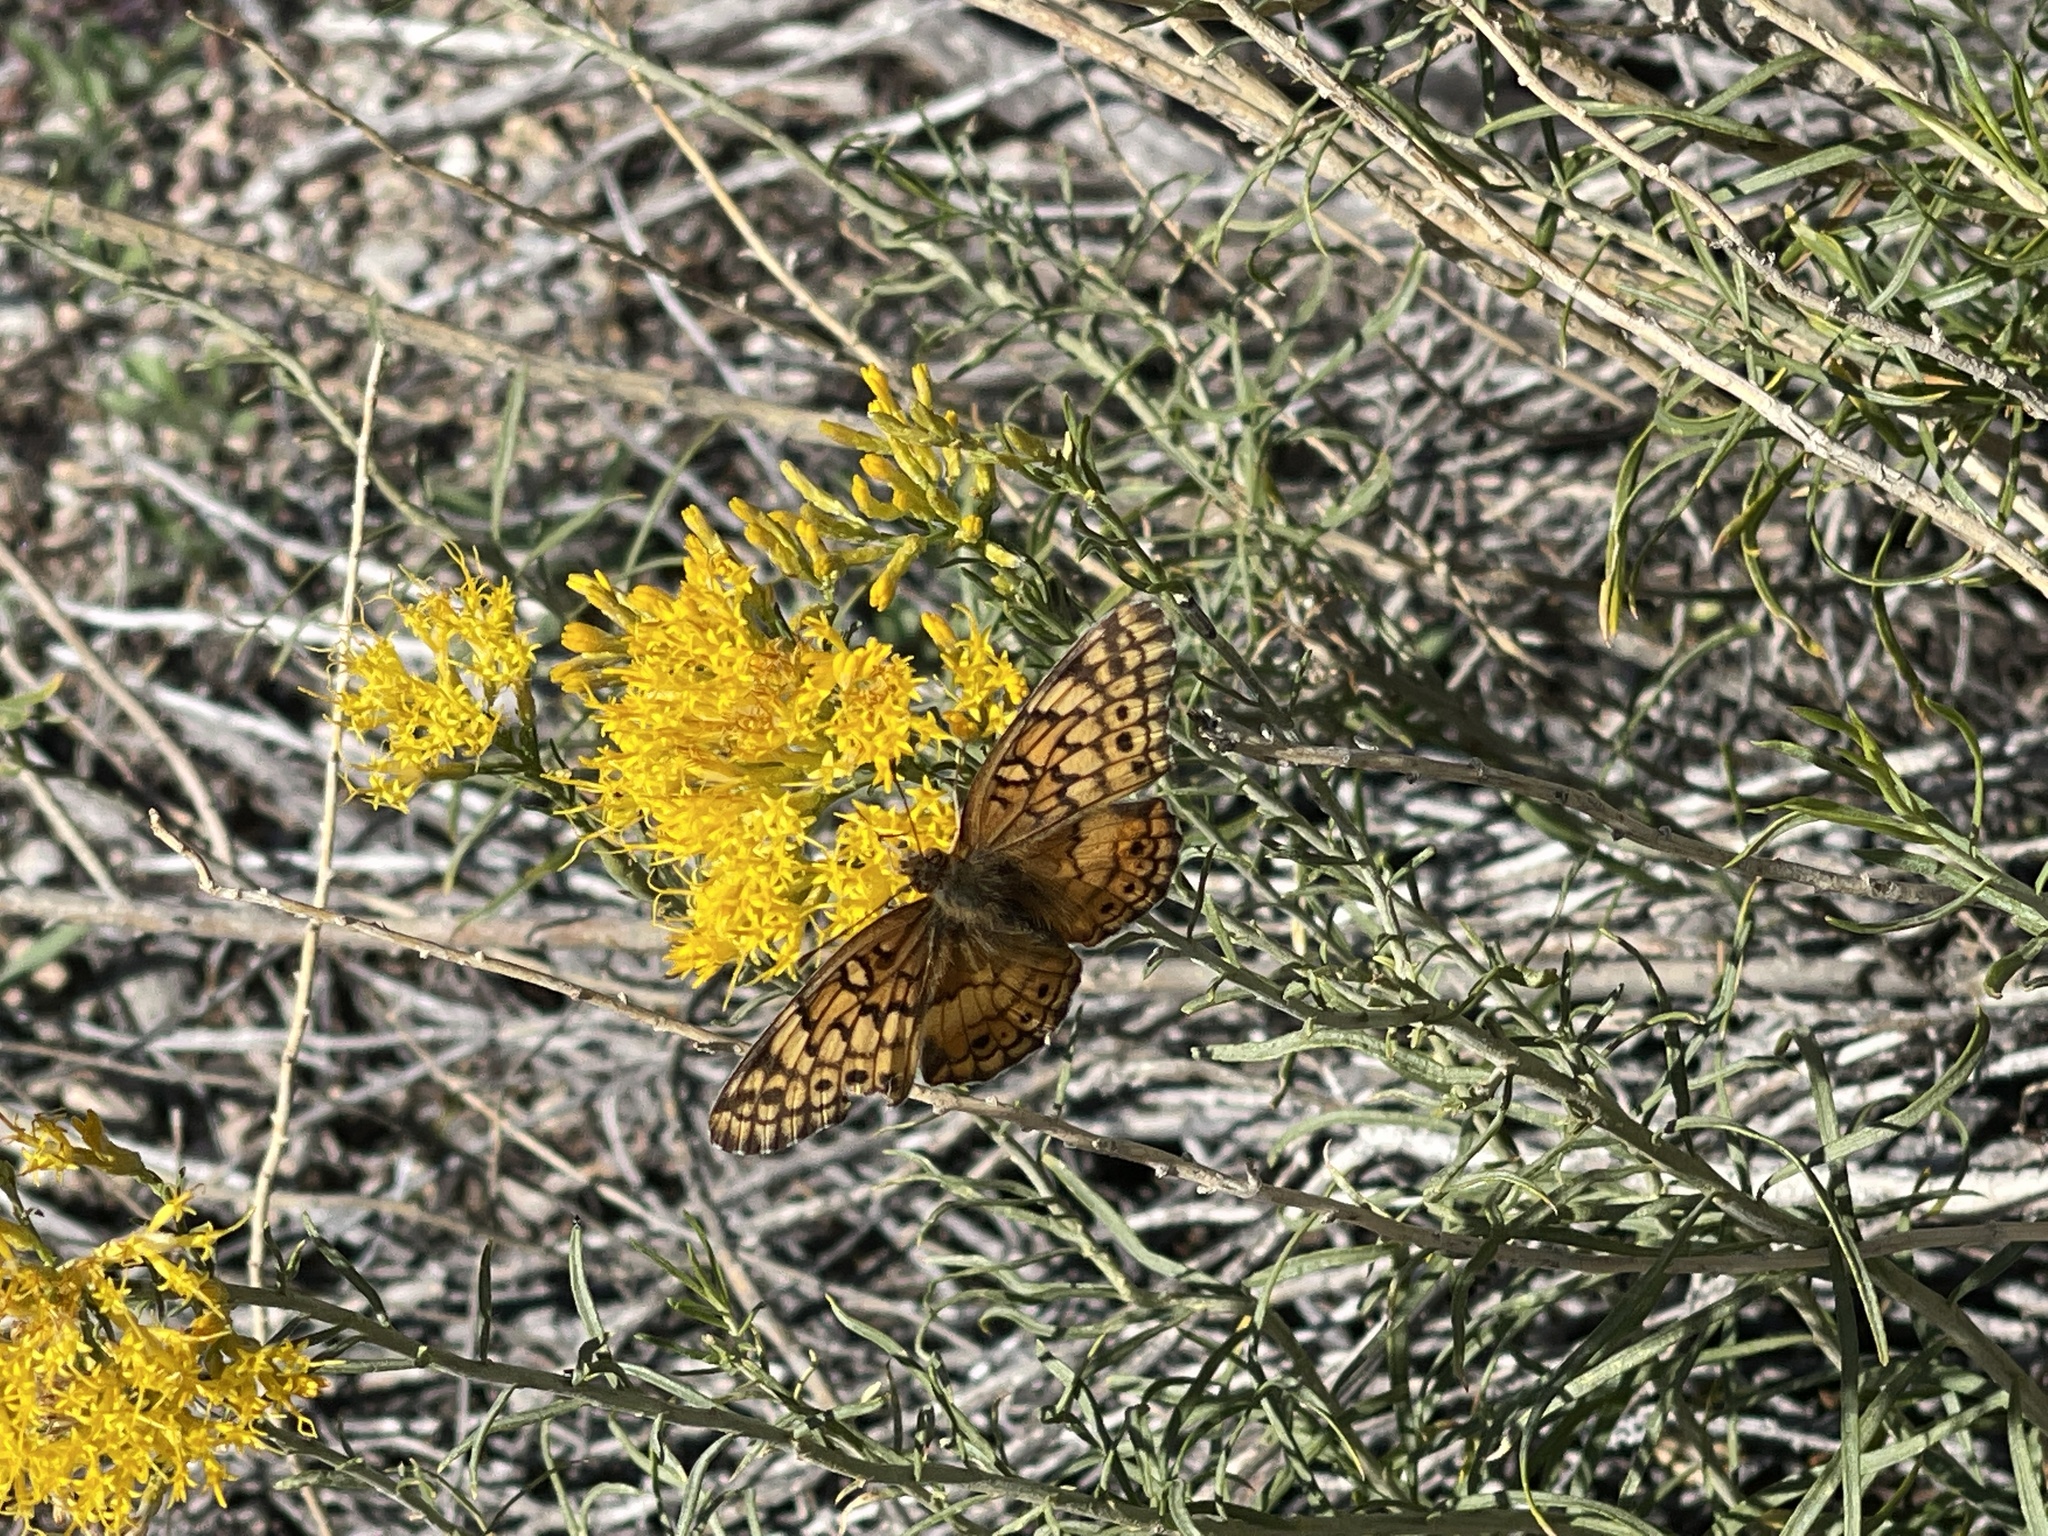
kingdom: Animalia
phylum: Arthropoda
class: Insecta
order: Lepidoptera
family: Nymphalidae
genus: Euptoieta
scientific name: Euptoieta claudia
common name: Variegated fritillary
